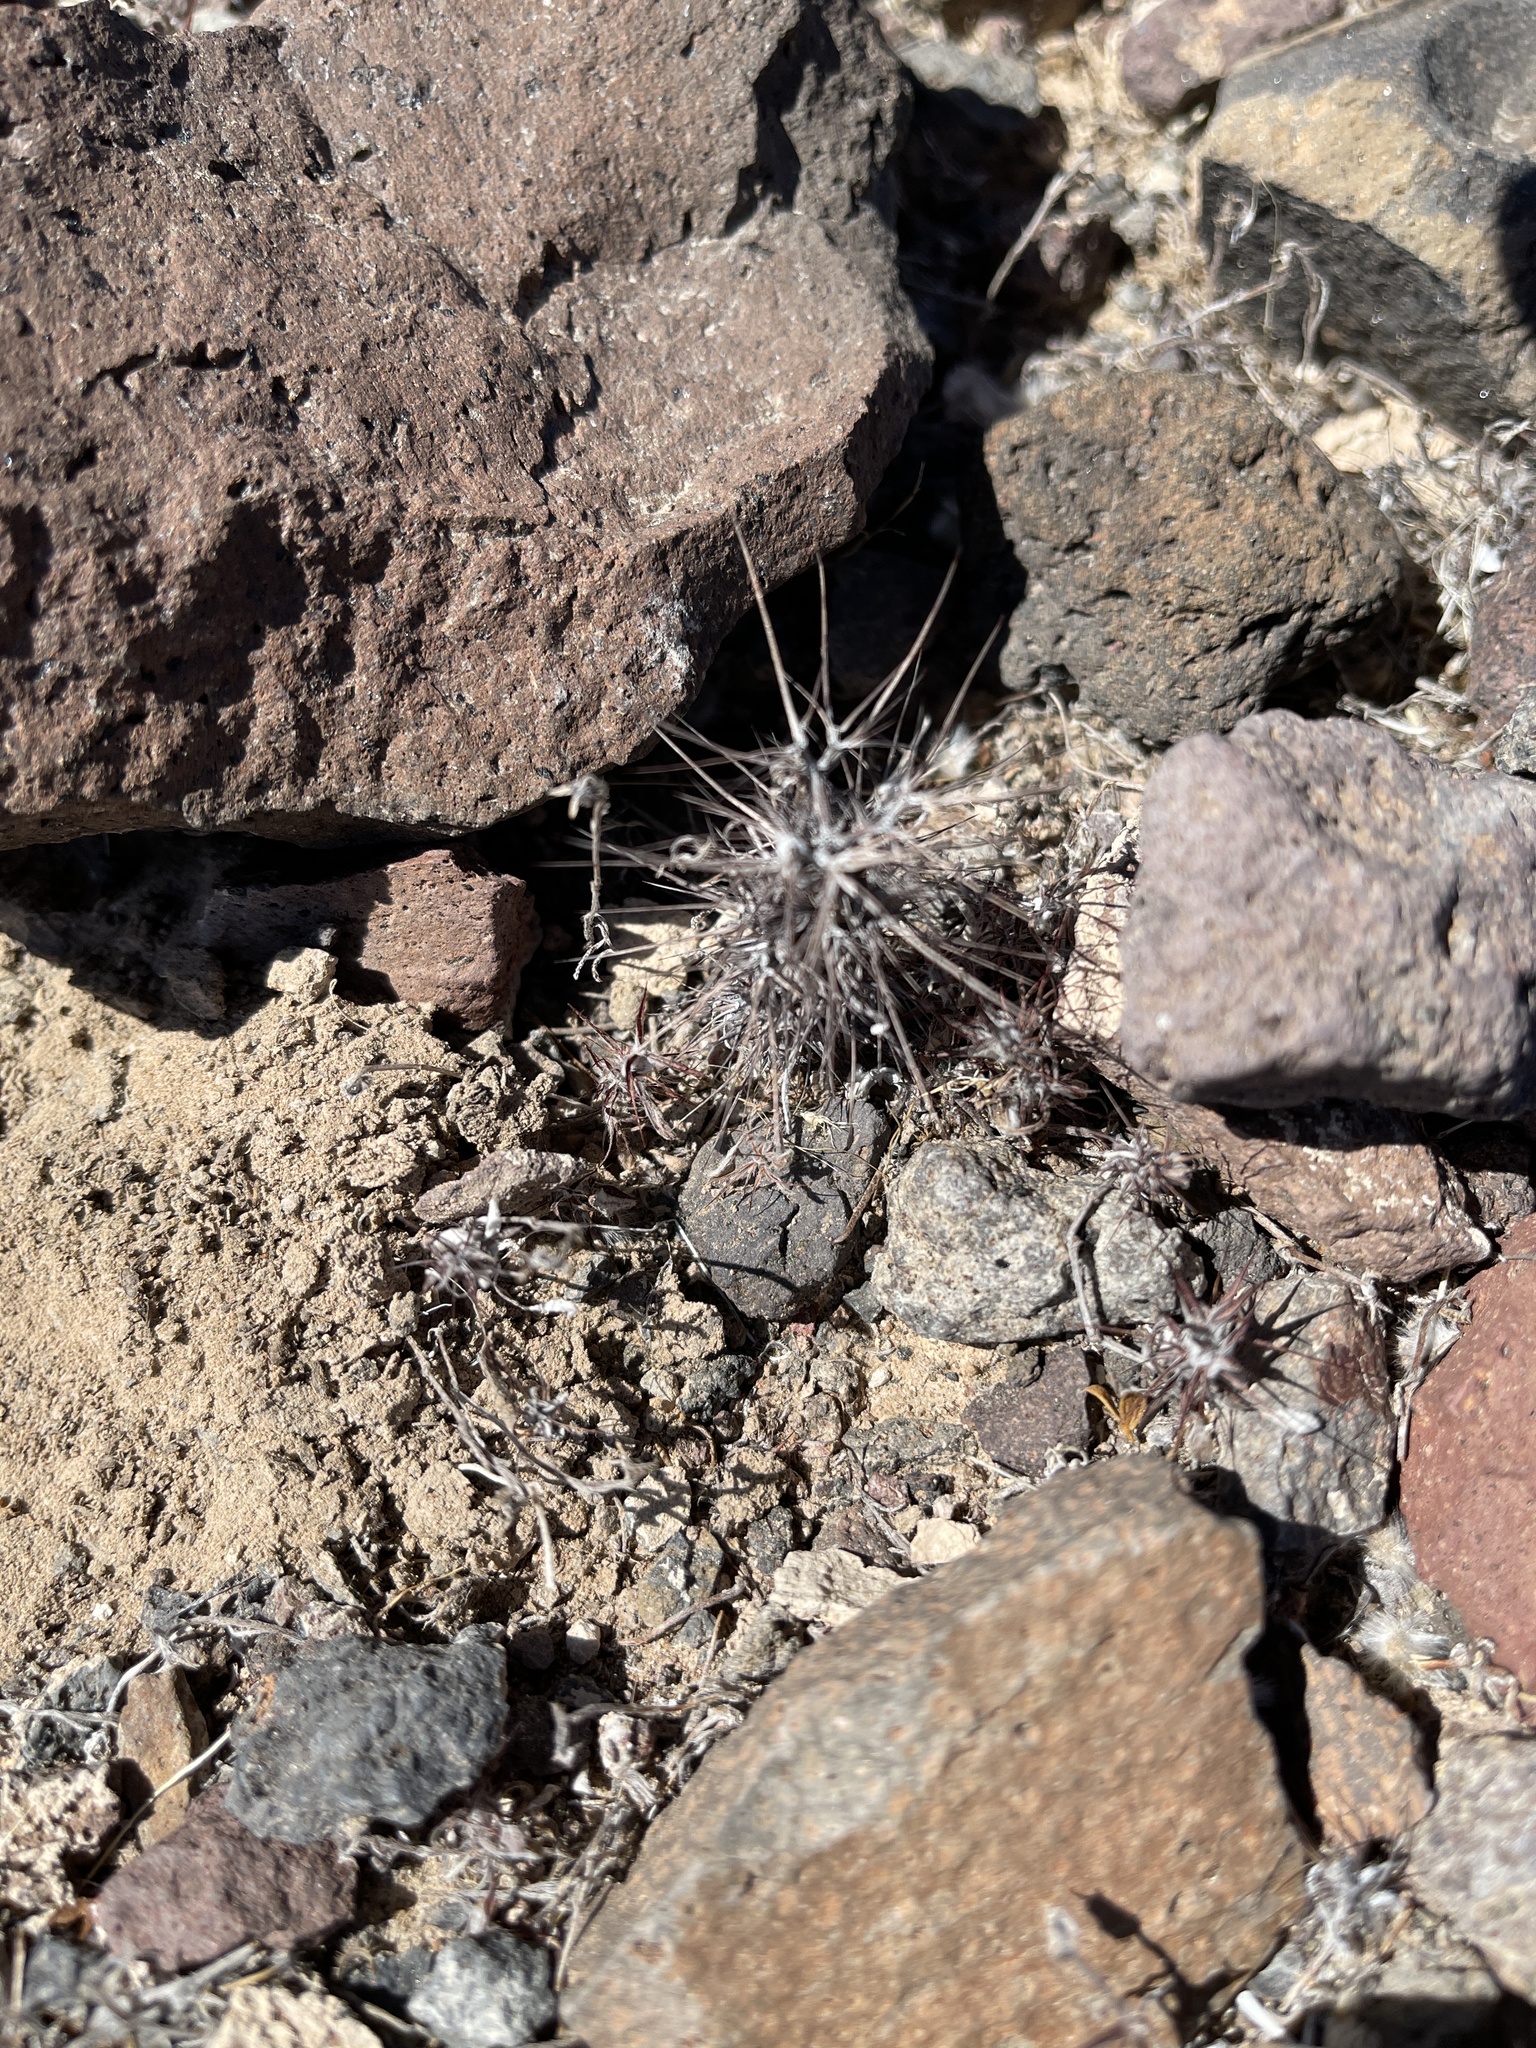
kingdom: Plantae
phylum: Tracheophyta
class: Magnoliopsida
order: Caryophyllales
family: Polygonaceae
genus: Chorizanthe
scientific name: Chorizanthe rigida
